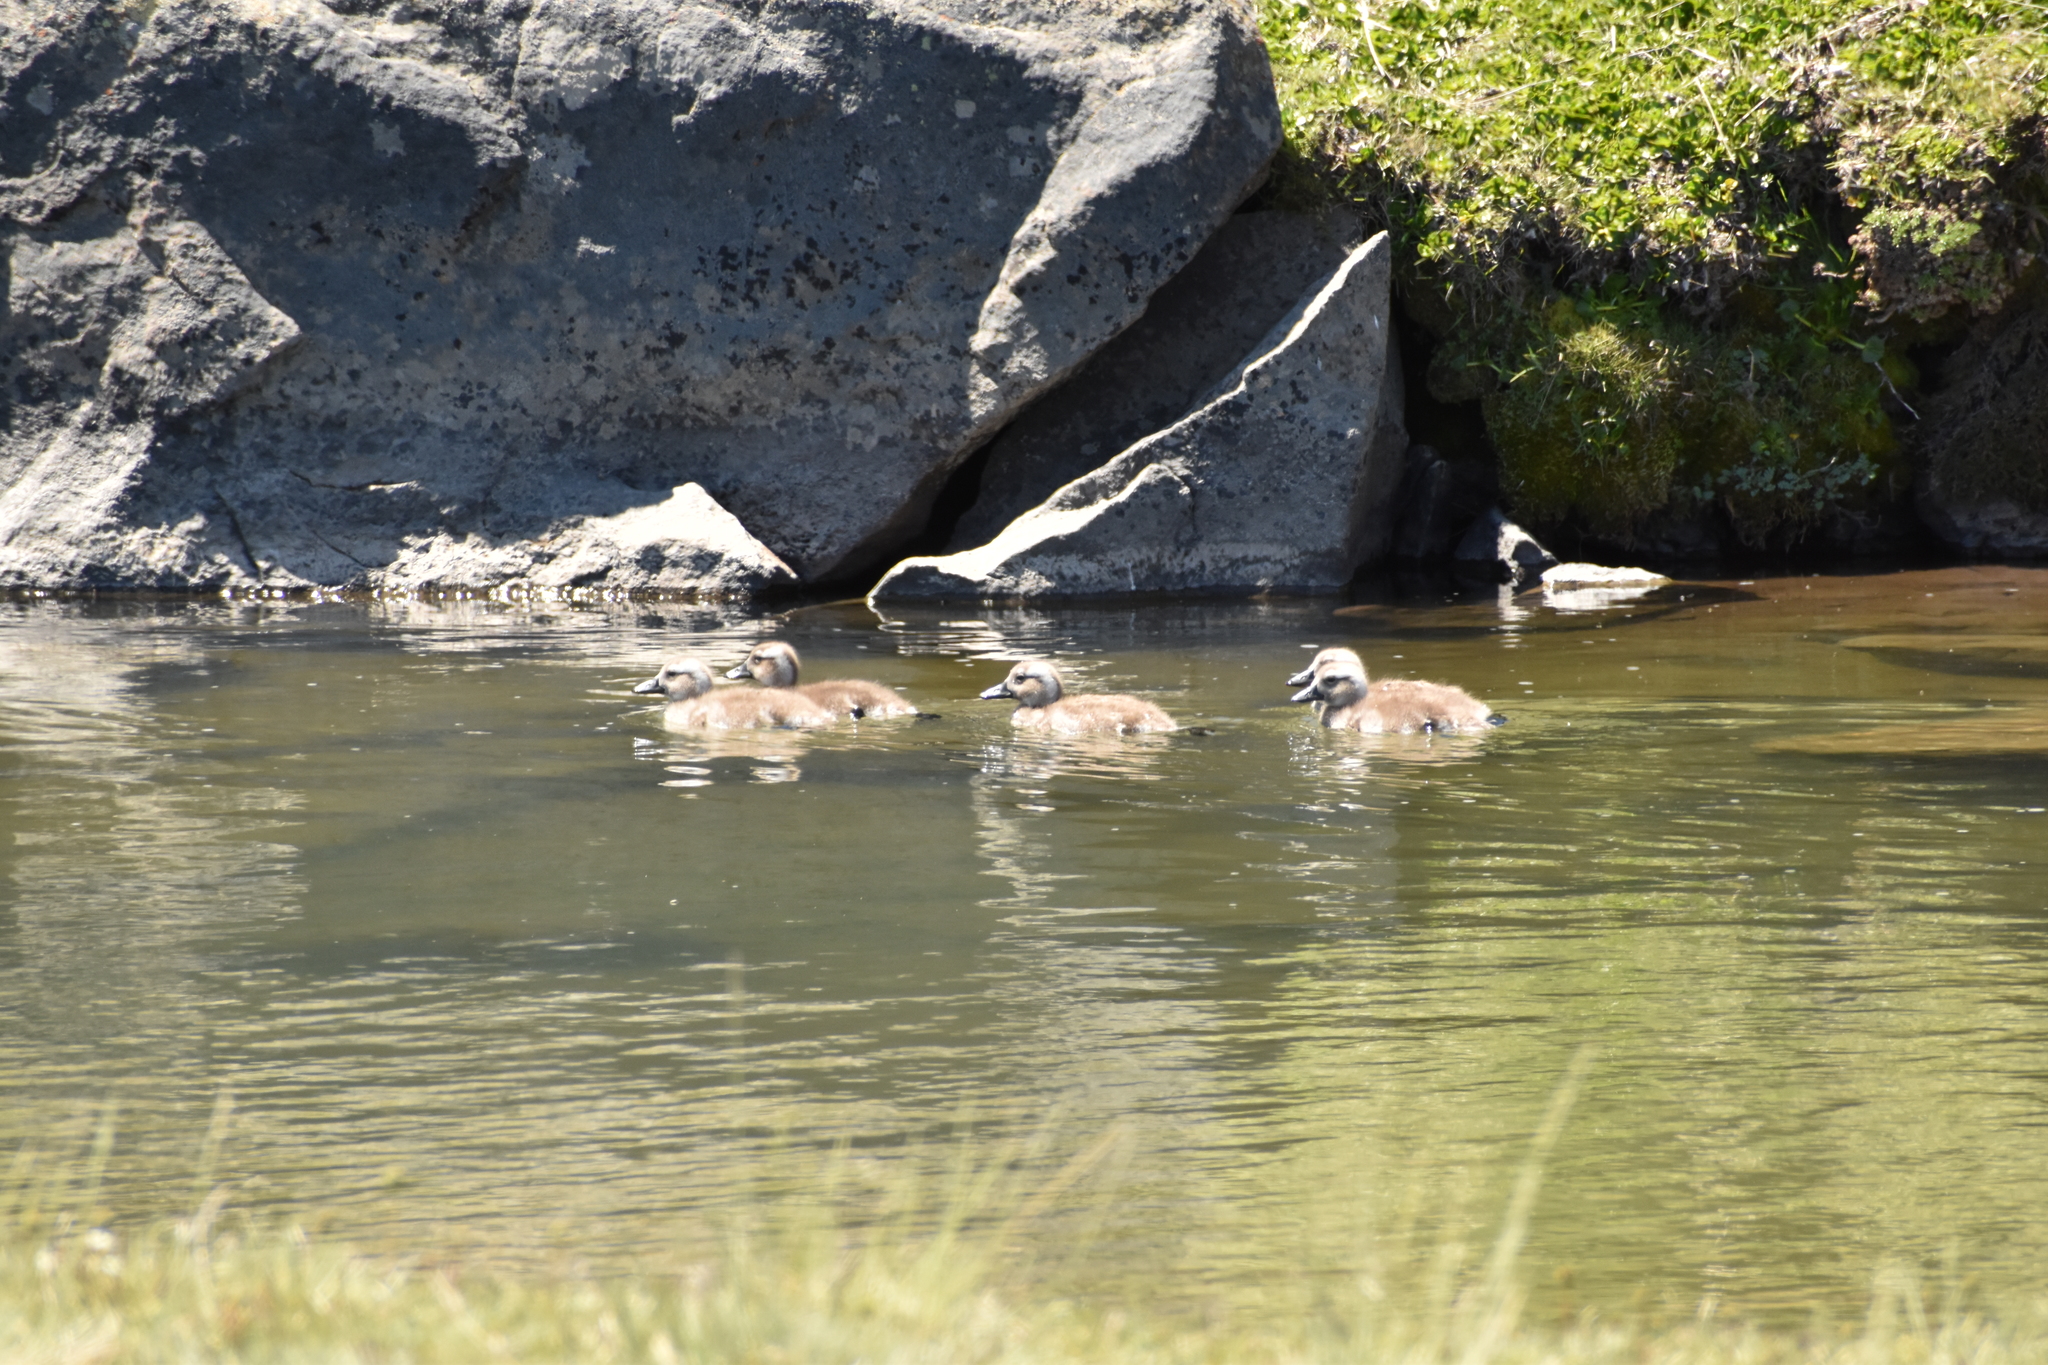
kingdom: Animalia
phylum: Chordata
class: Aves
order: Anseriformes
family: Anatidae
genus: Tachyeres
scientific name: Tachyeres patachonicus
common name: Flying steamer duck
